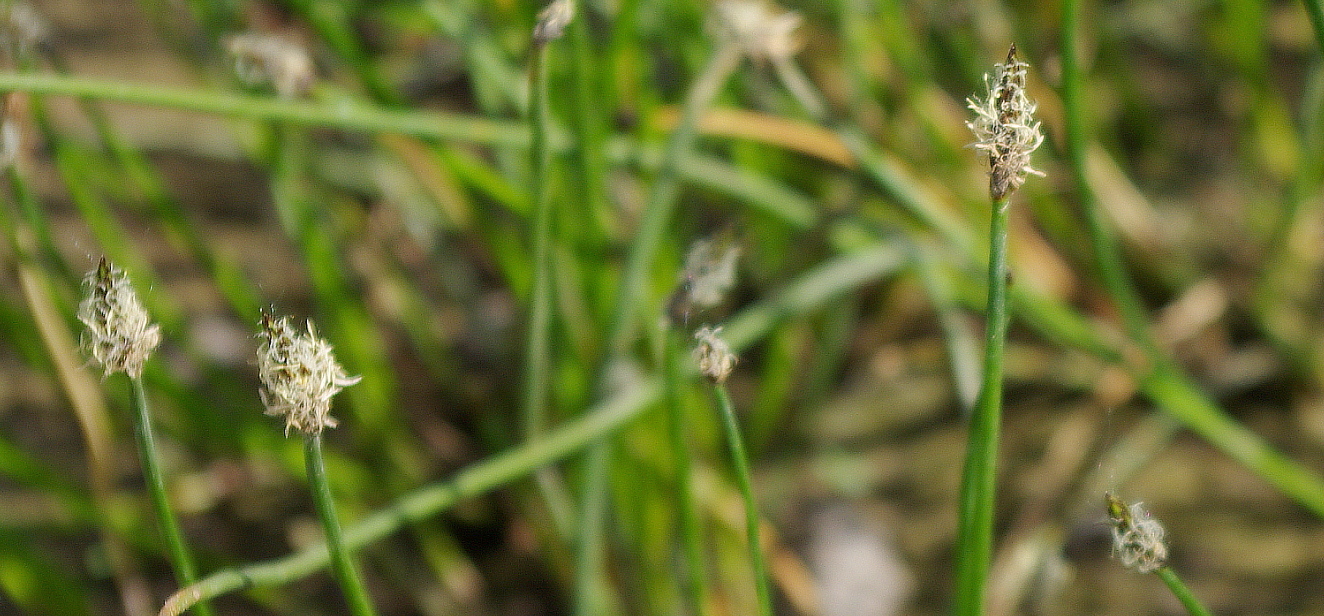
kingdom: Plantae
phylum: Tracheophyta
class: Liliopsida
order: Poales
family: Cyperaceae
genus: Eleocharis
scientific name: Eleocharis palustris
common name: Common spike-rush
